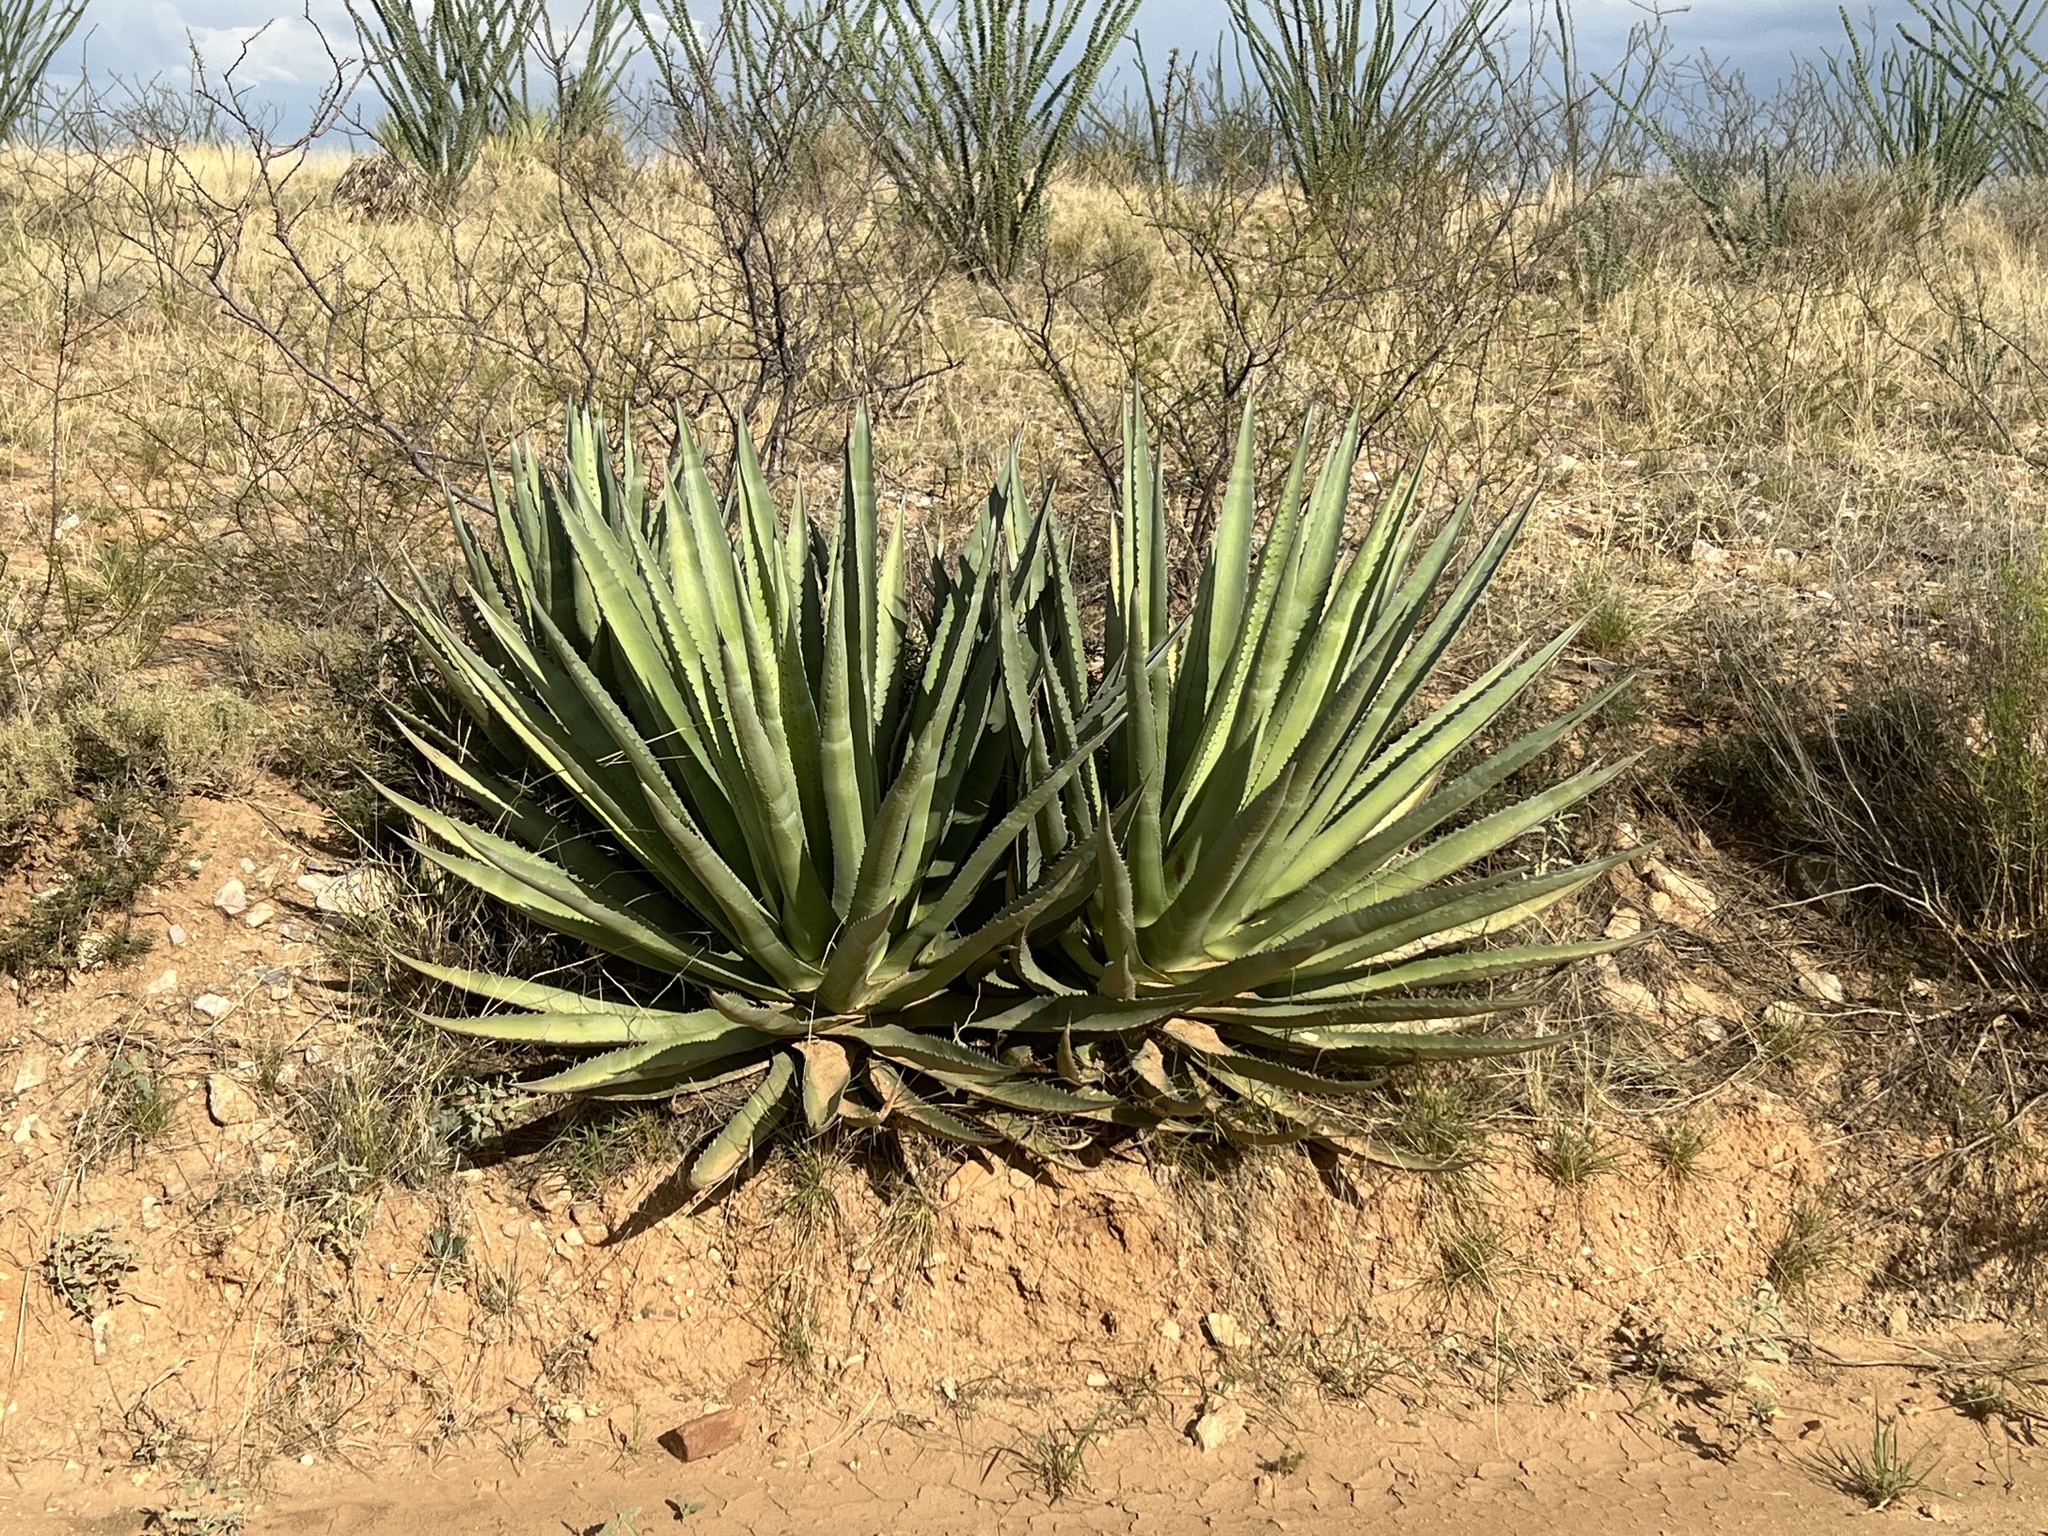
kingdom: Plantae
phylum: Tracheophyta
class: Liliopsida
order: Asparagales
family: Asparagaceae
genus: Agave
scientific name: Agave palmeri
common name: Palmer agave
